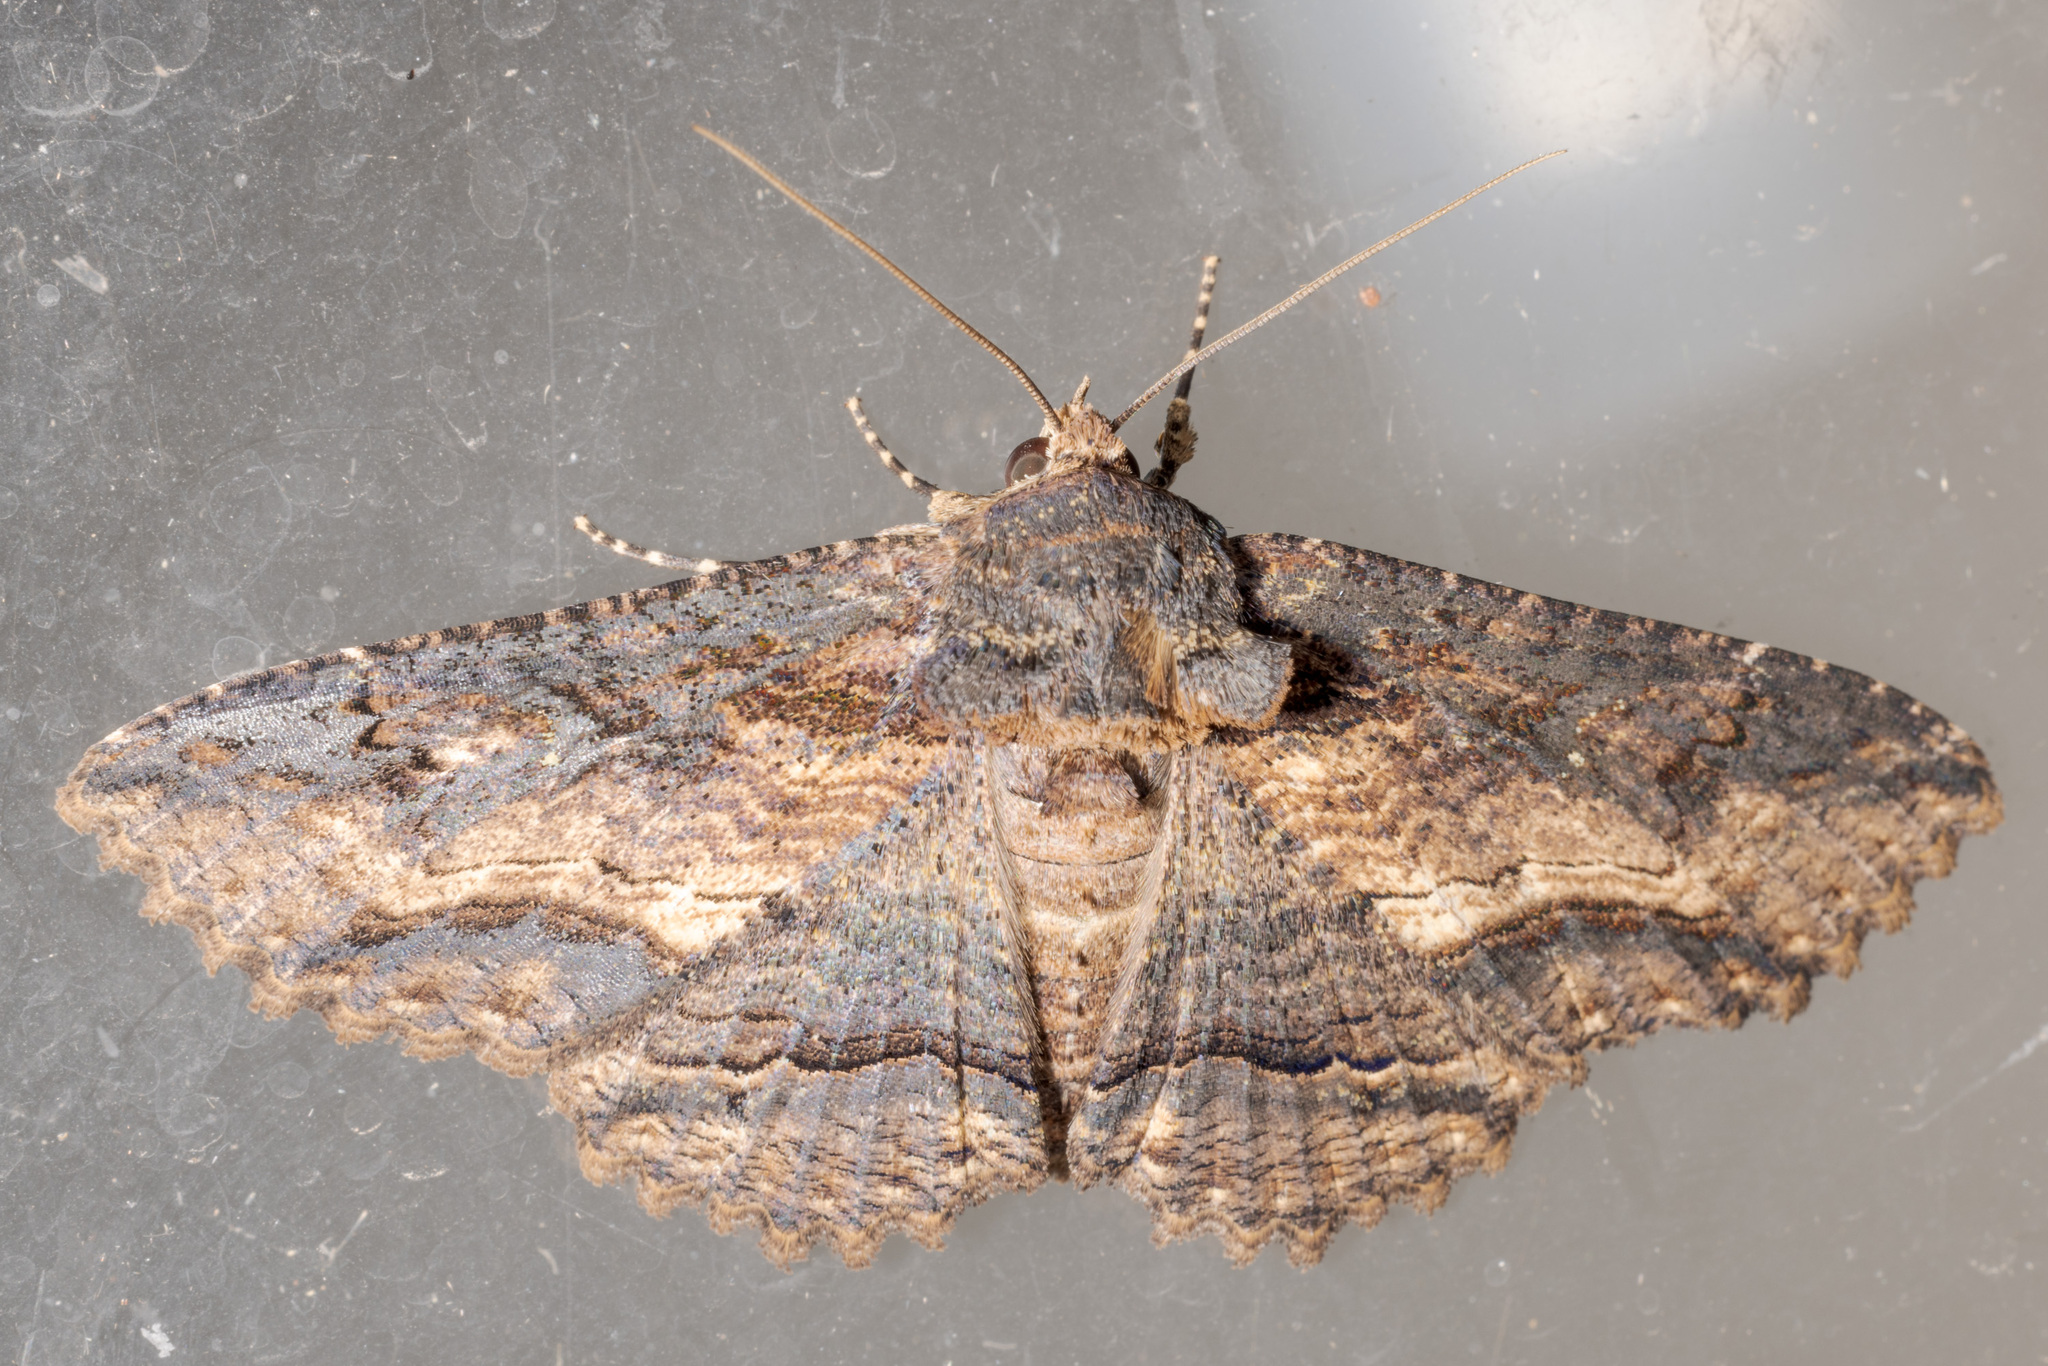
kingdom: Animalia
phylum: Arthropoda
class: Insecta
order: Lepidoptera
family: Erebidae
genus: Zale
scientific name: Zale lunata
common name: Lunate zale moth
